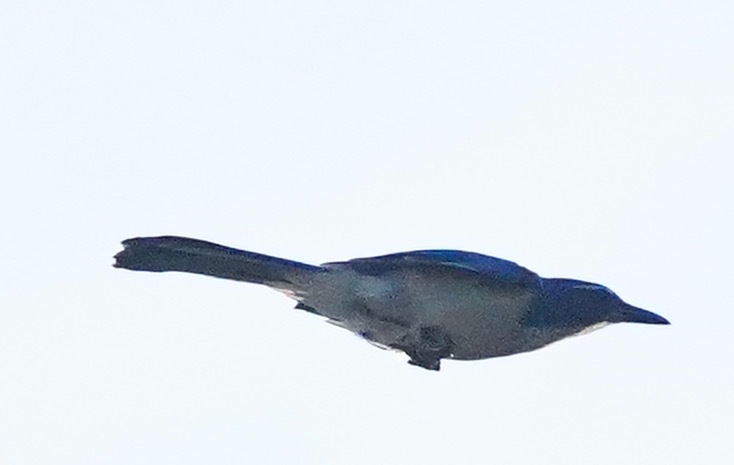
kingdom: Animalia
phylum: Chordata
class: Aves
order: Passeriformes
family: Corvidae
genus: Aphelocoma
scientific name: Aphelocoma californica
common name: California scrub-jay
